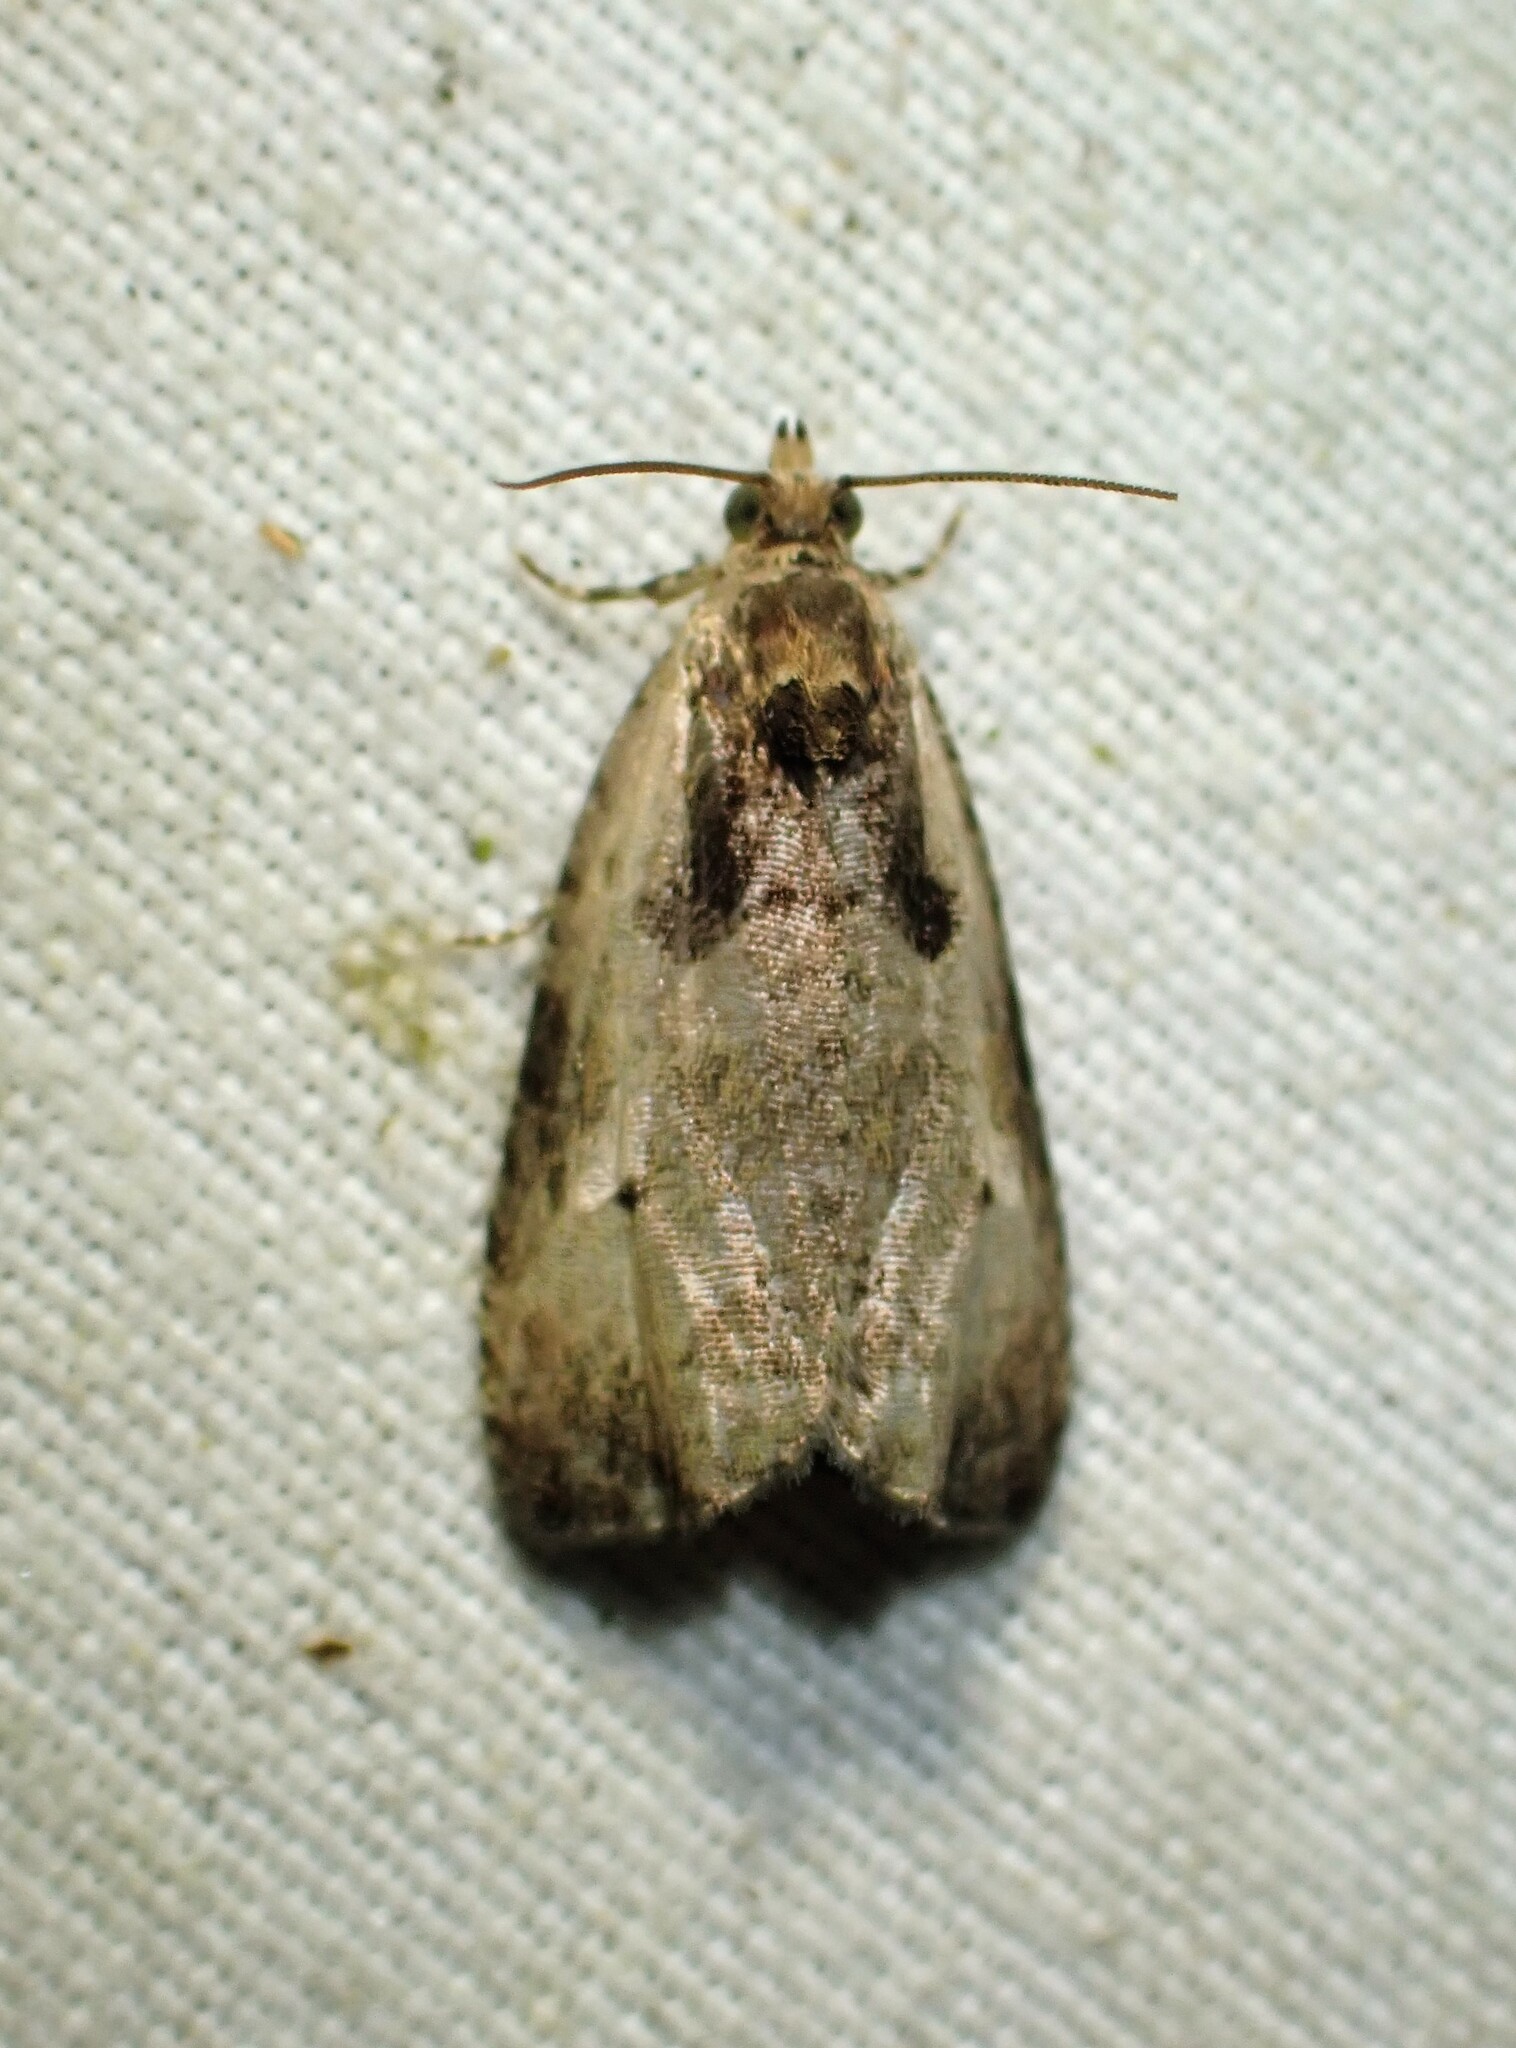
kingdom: Animalia
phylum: Arthropoda
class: Insecta
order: Lepidoptera
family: Tortricidae
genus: Olethreutes
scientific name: Olethreutes punctanum
